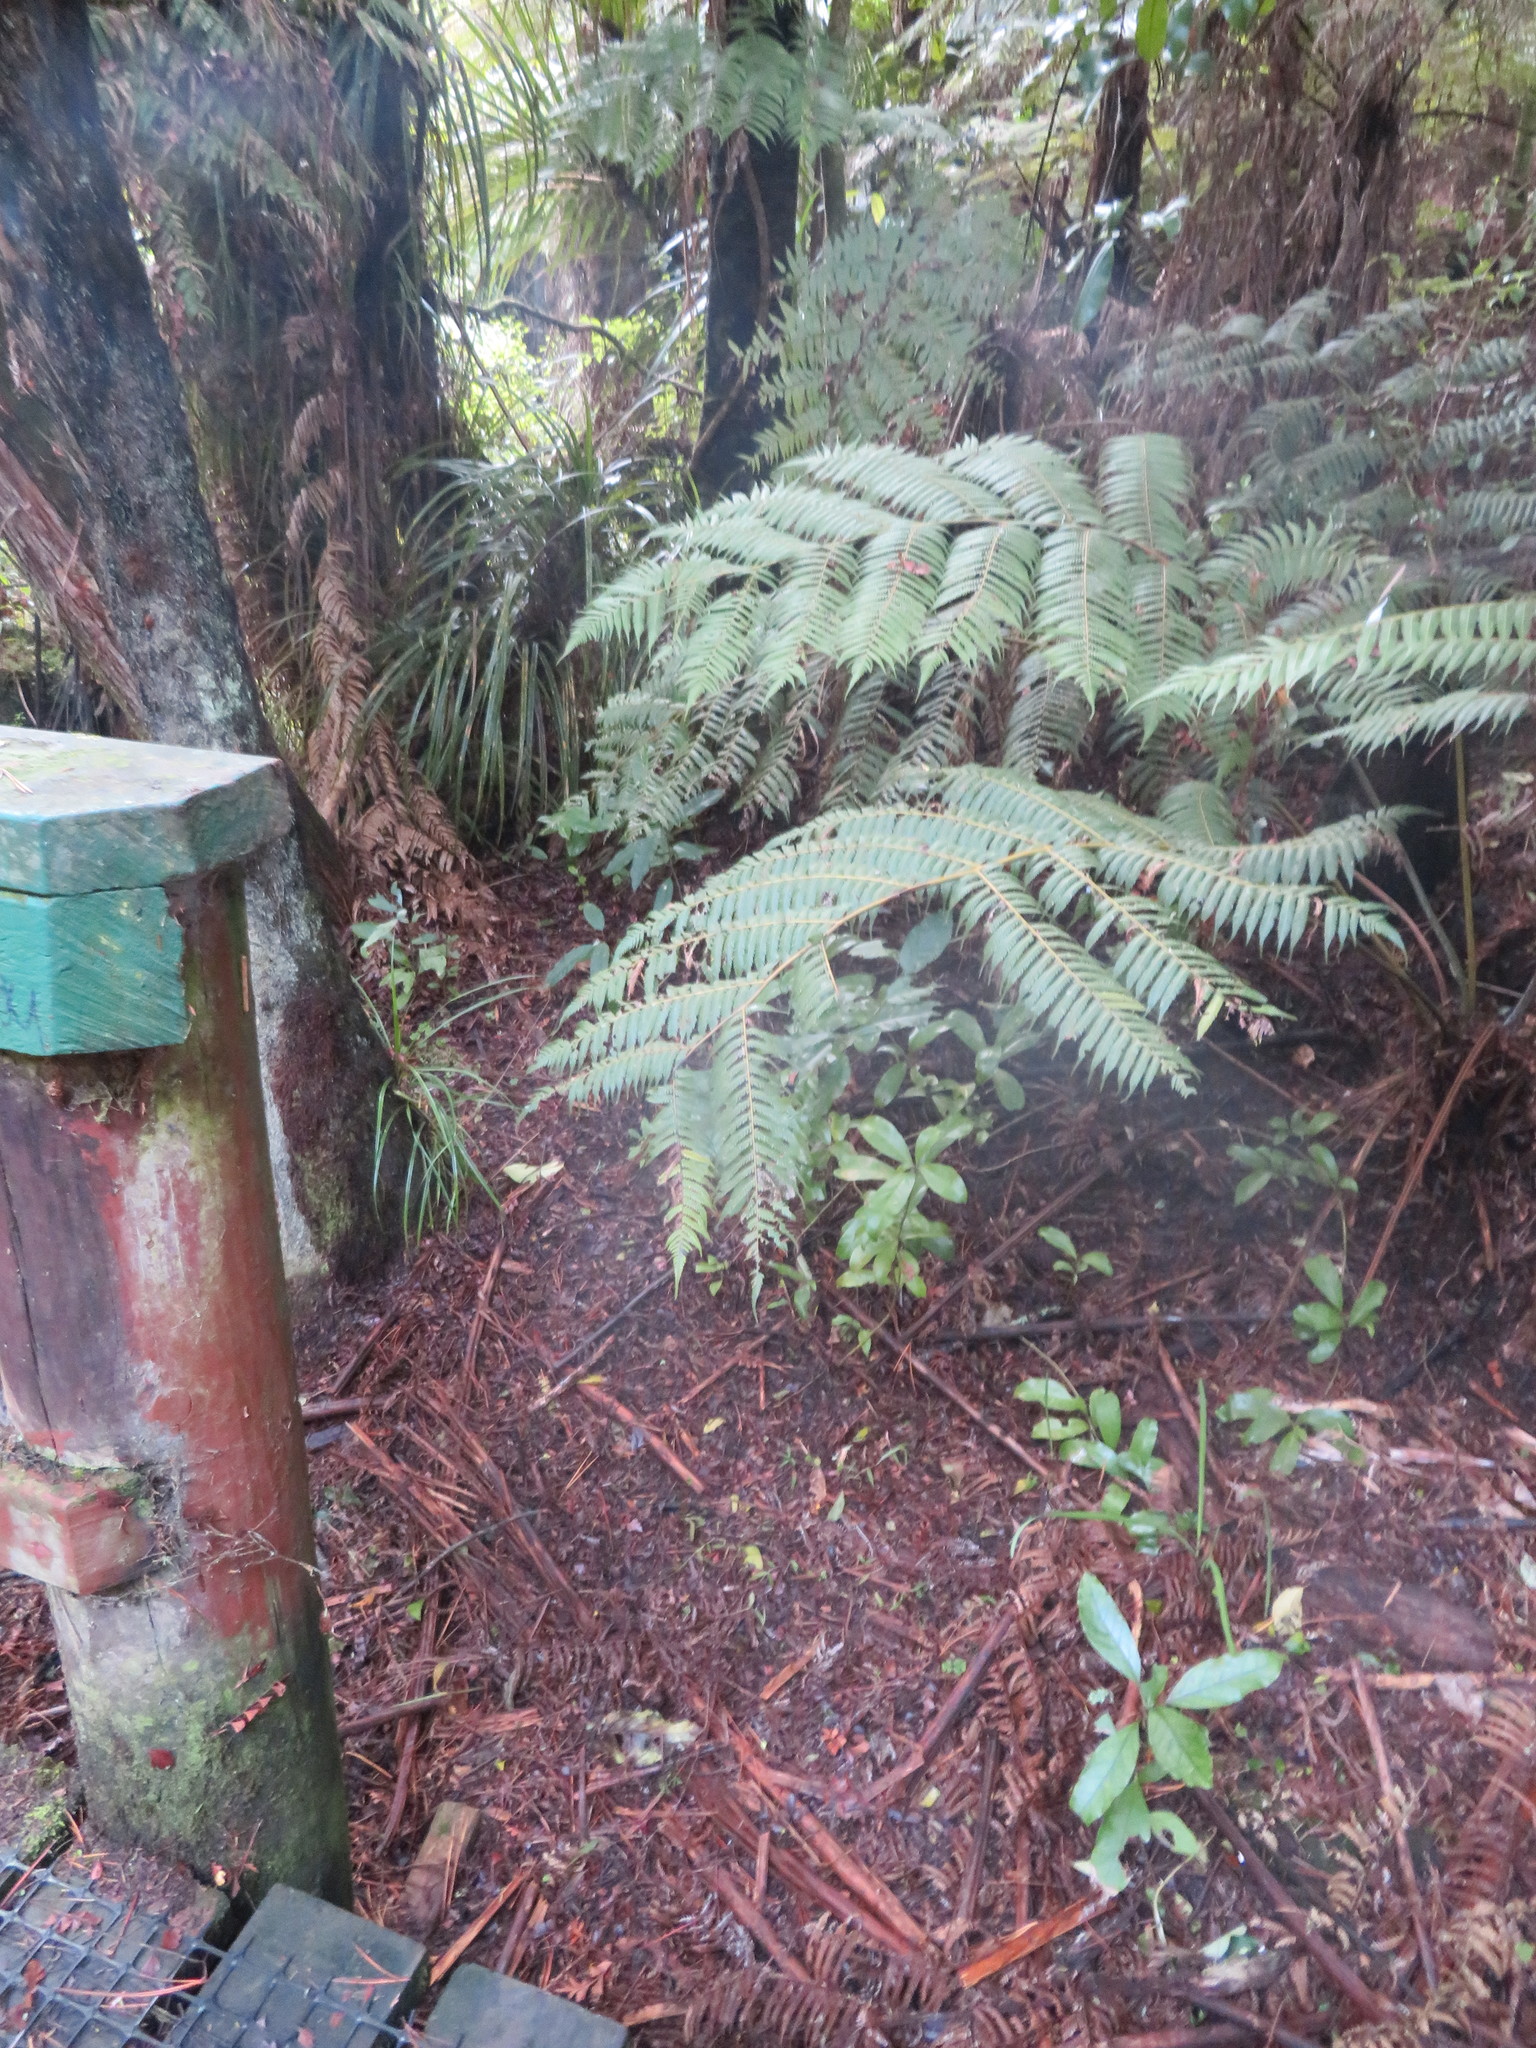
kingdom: Plantae
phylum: Tracheophyta
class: Liliopsida
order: Pandanales
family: Pandanaceae
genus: Freycinetia
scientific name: Freycinetia banksii
